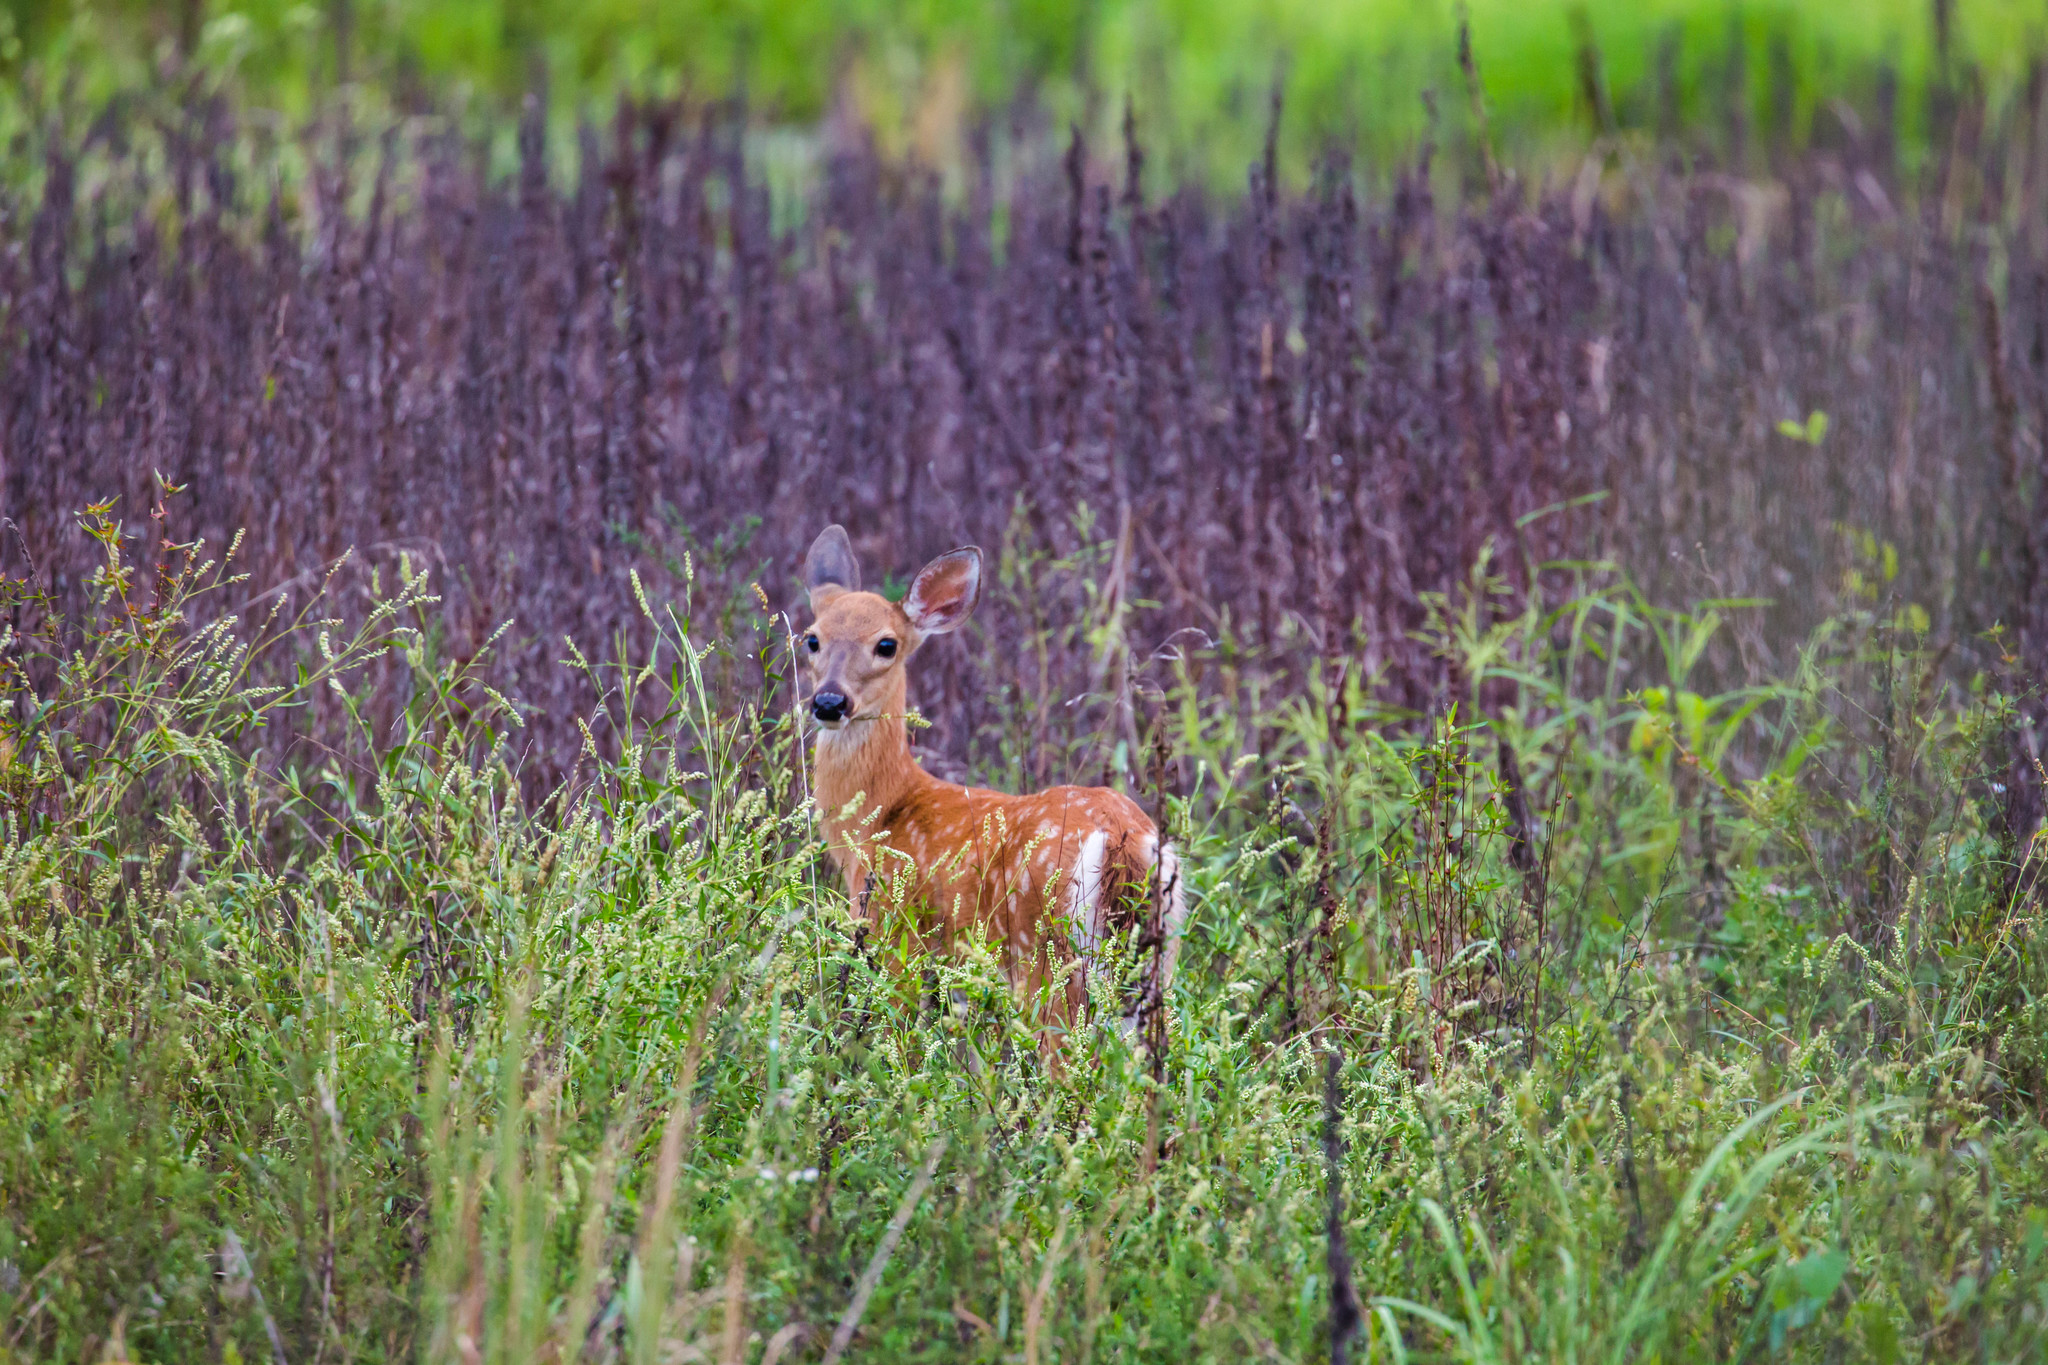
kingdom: Animalia
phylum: Chordata
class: Mammalia
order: Artiodactyla
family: Cervidae
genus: Odocoileus
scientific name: Odocoileus virginianus
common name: White-tailed deer
